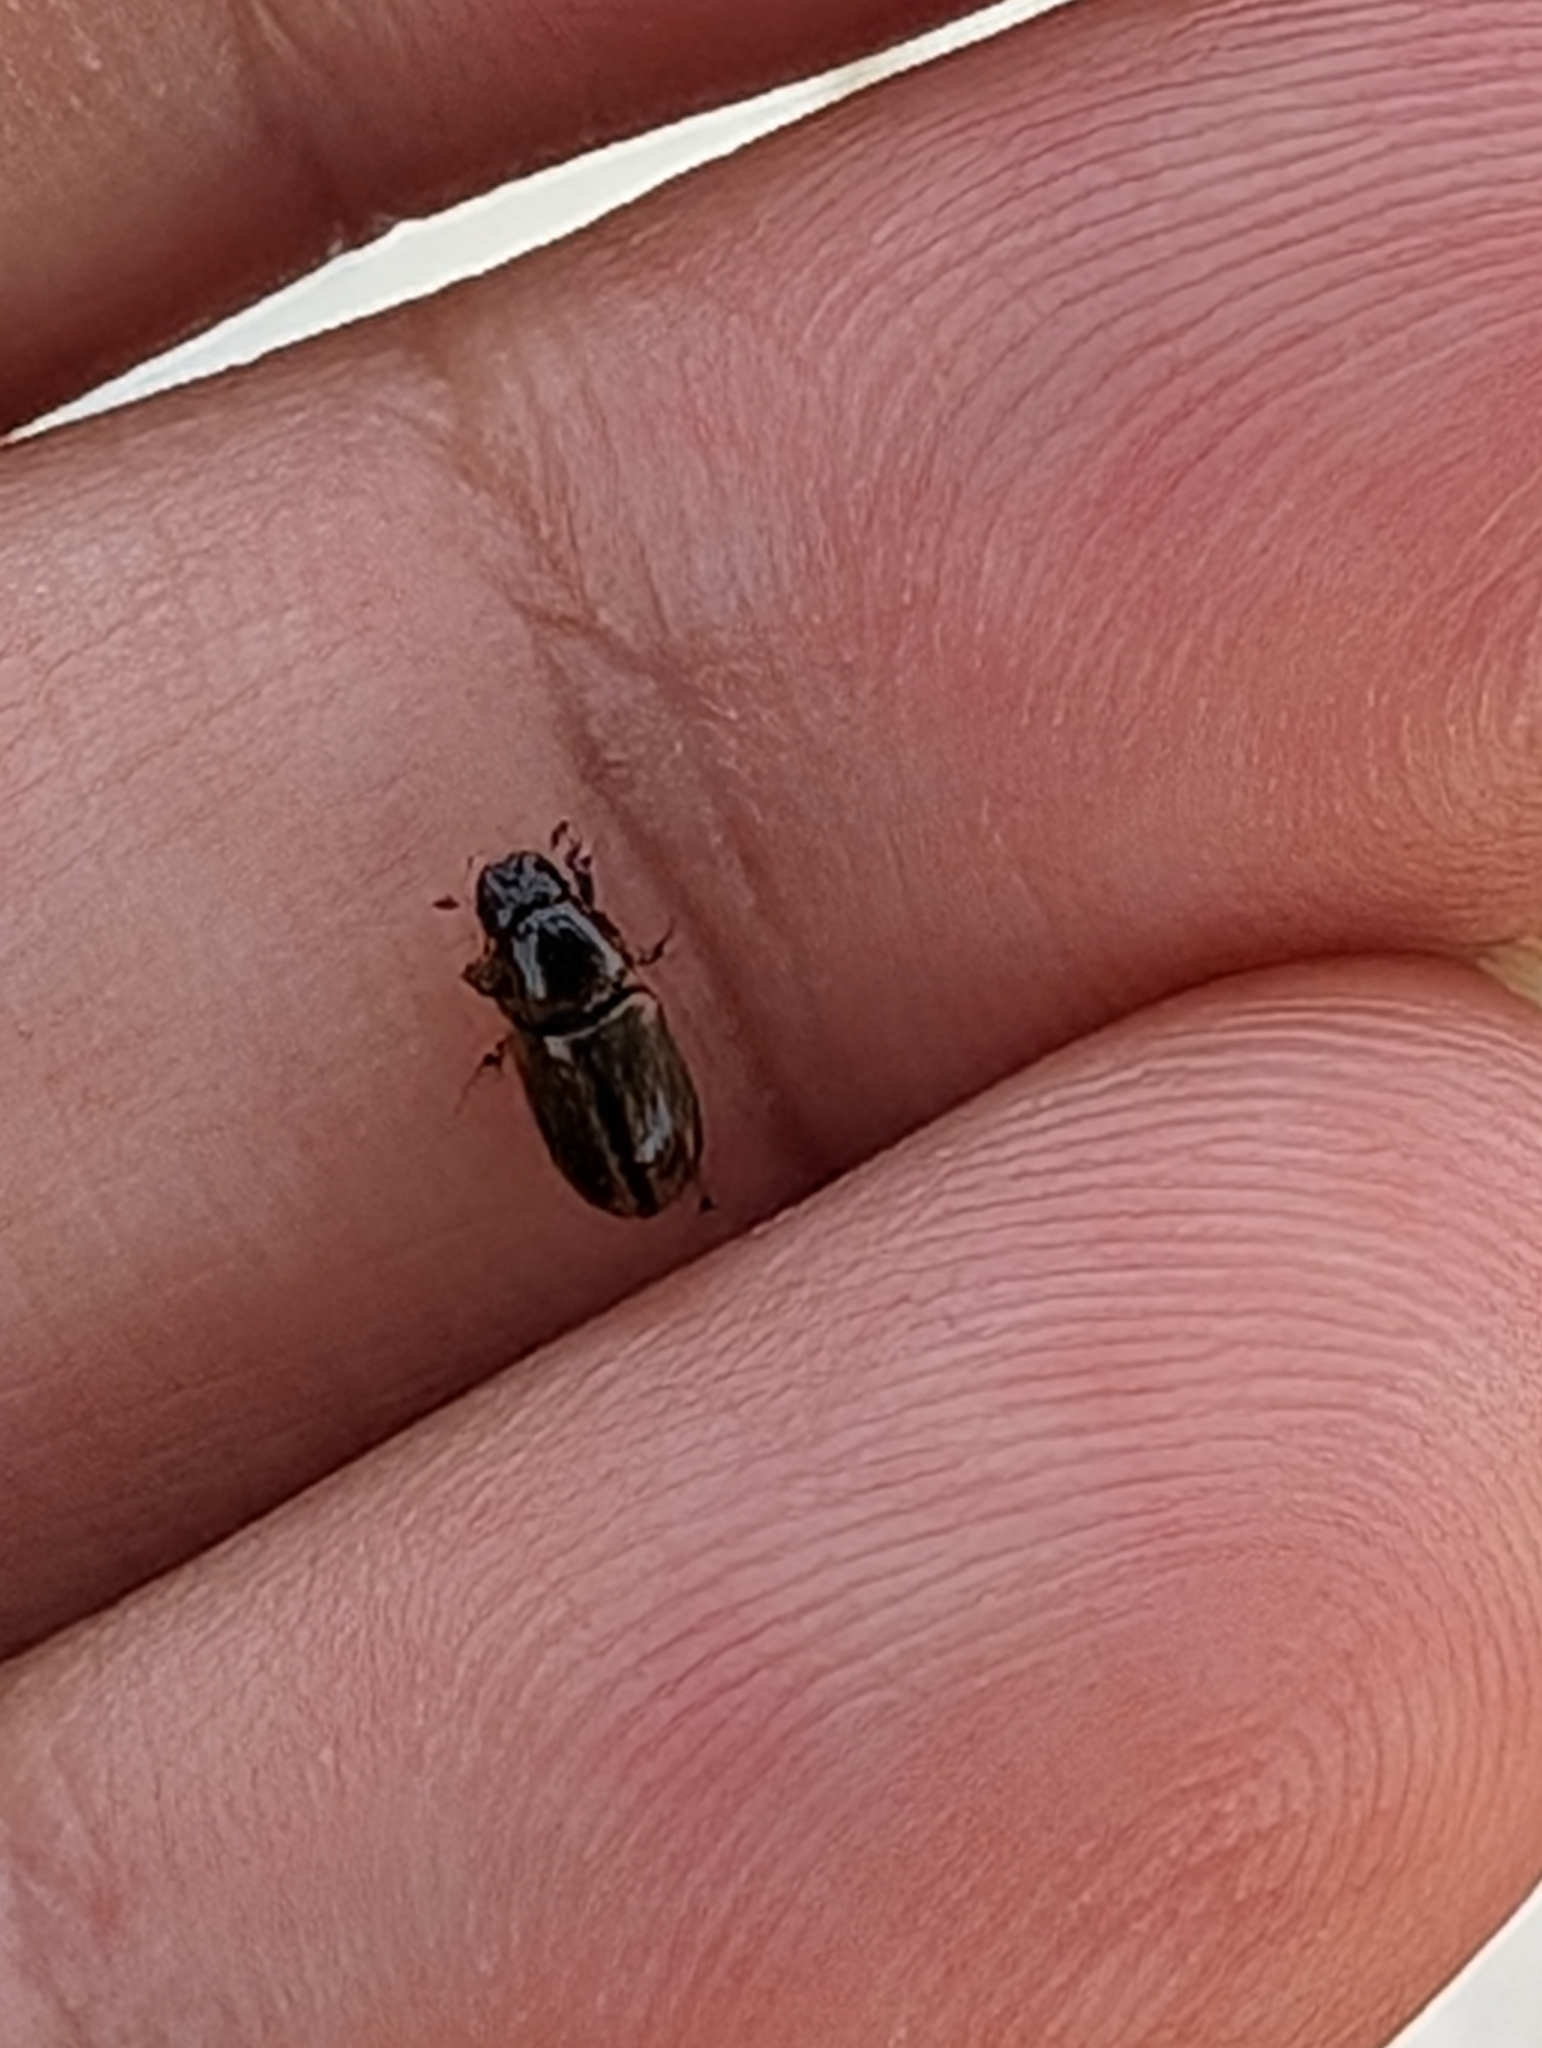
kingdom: Animalia
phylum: Arthropoda
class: Insecta
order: Coleoptera
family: Scarabaeidae
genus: Labarrus
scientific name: Labarrus lividus
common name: Scarab beetle
